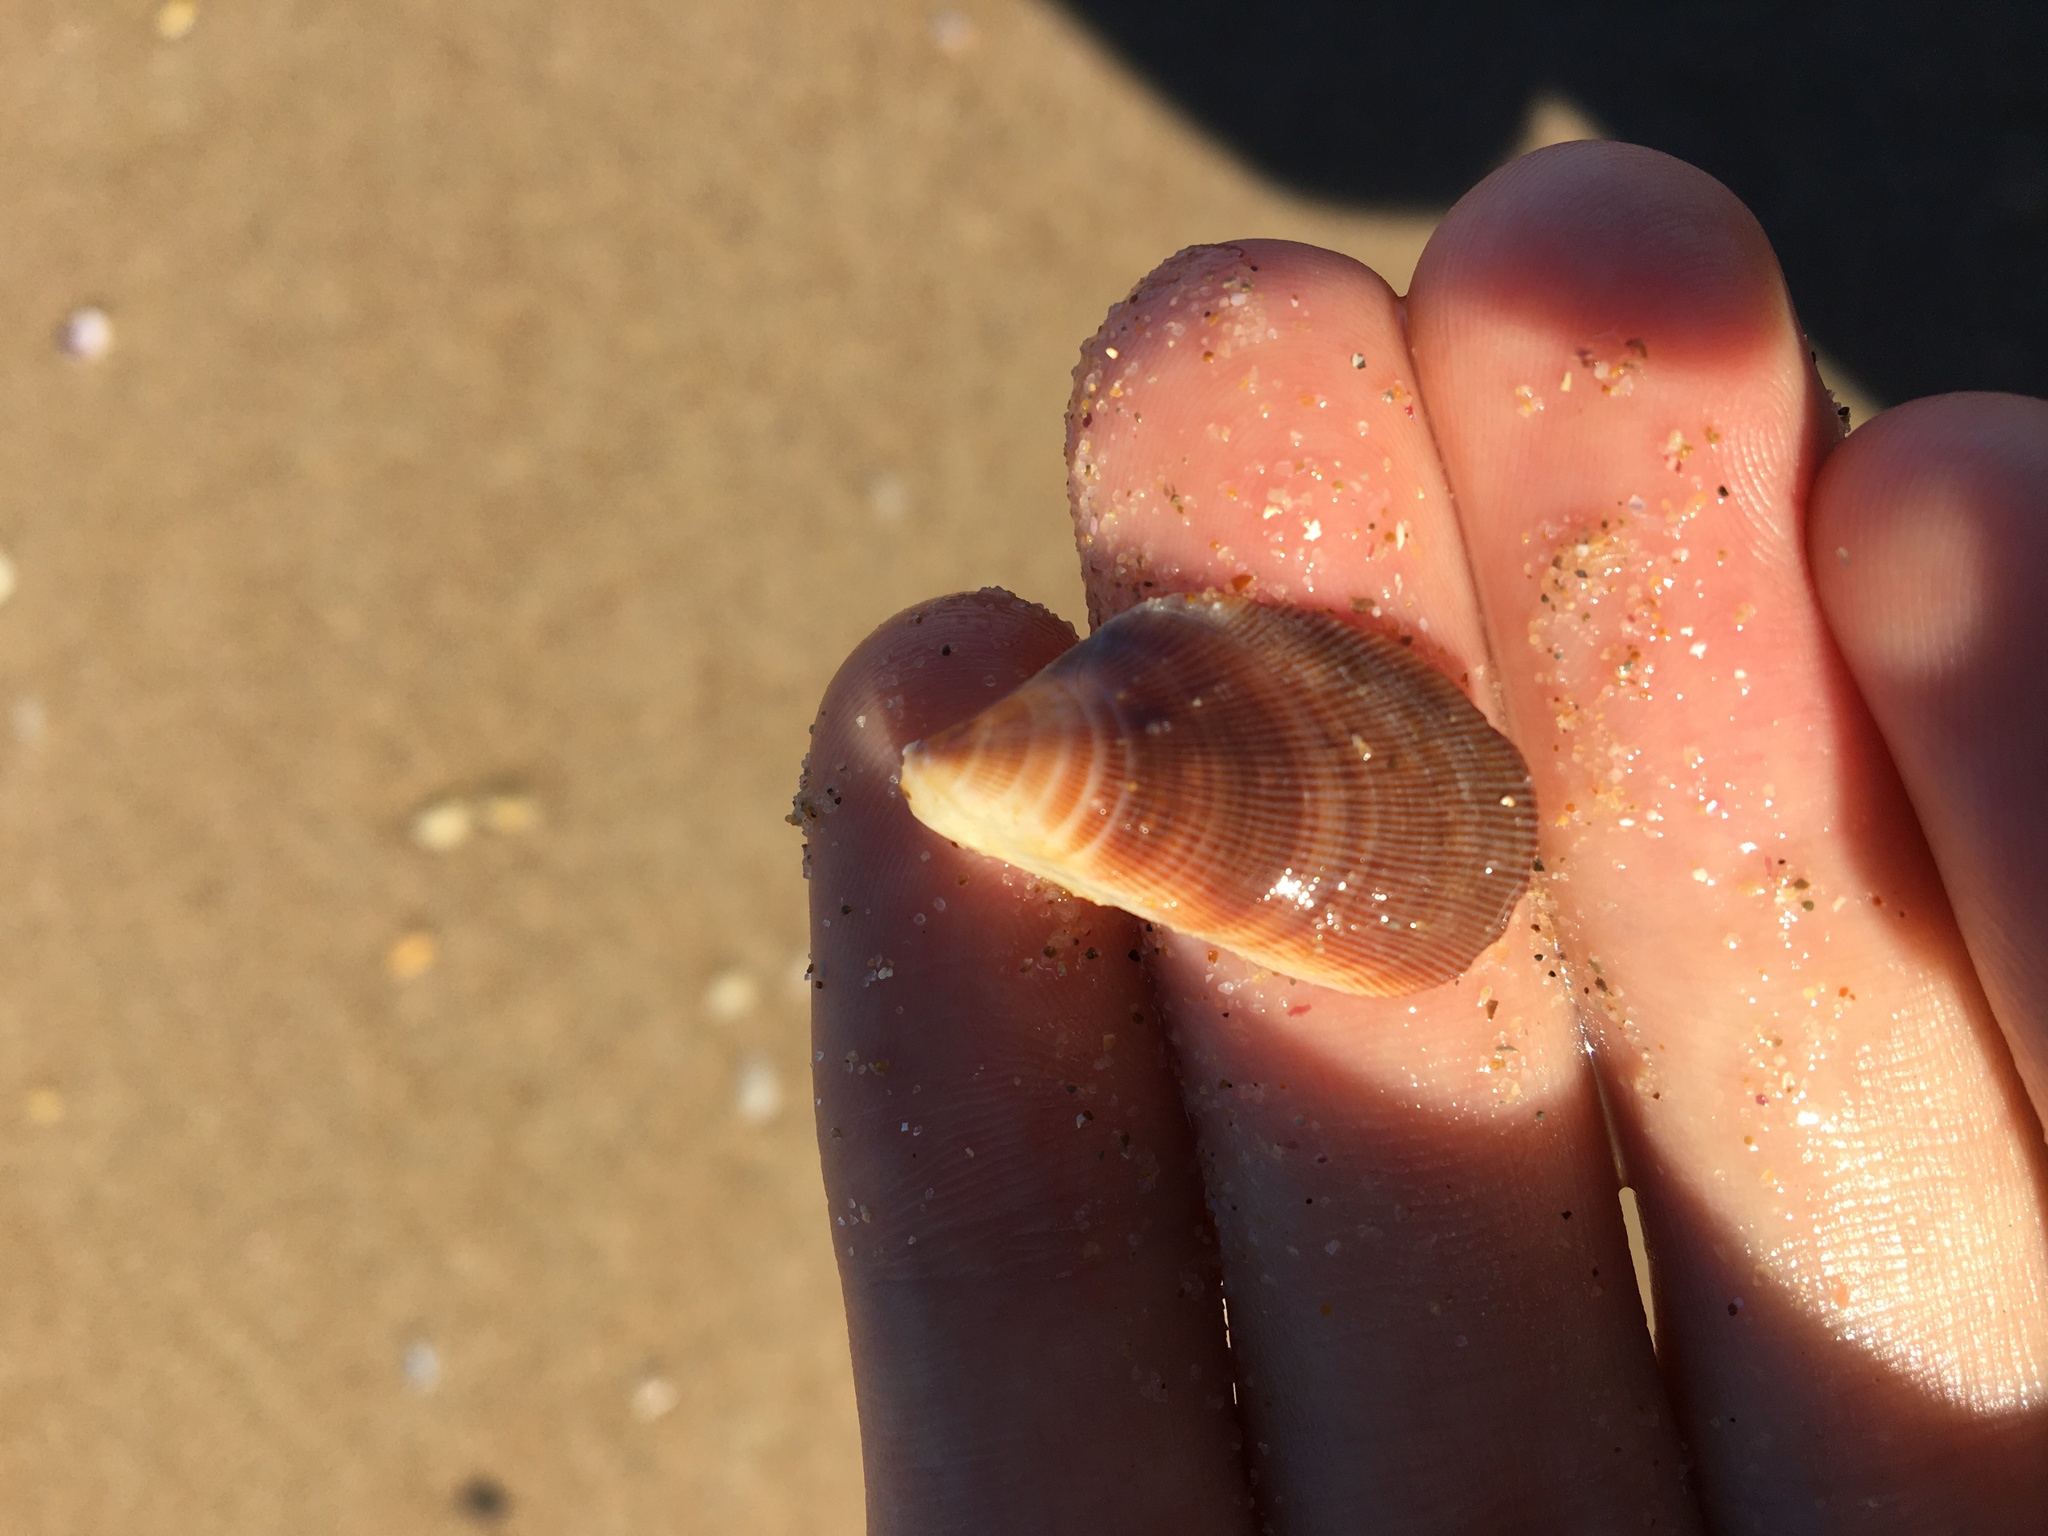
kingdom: Animalia
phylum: Mollusca
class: Bivalvia
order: Mytilida
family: Mytilidae
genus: Trichomya
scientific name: Trichomya hirsuta
